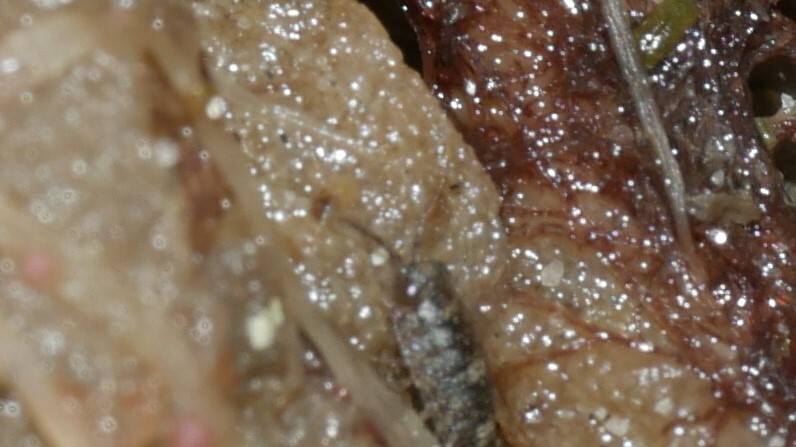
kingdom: Animalia
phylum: Arthropoda
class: Malacostraca
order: Isopoda
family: Ligiidae
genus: Ligia
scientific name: Ligia exotica
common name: Wharf roach
